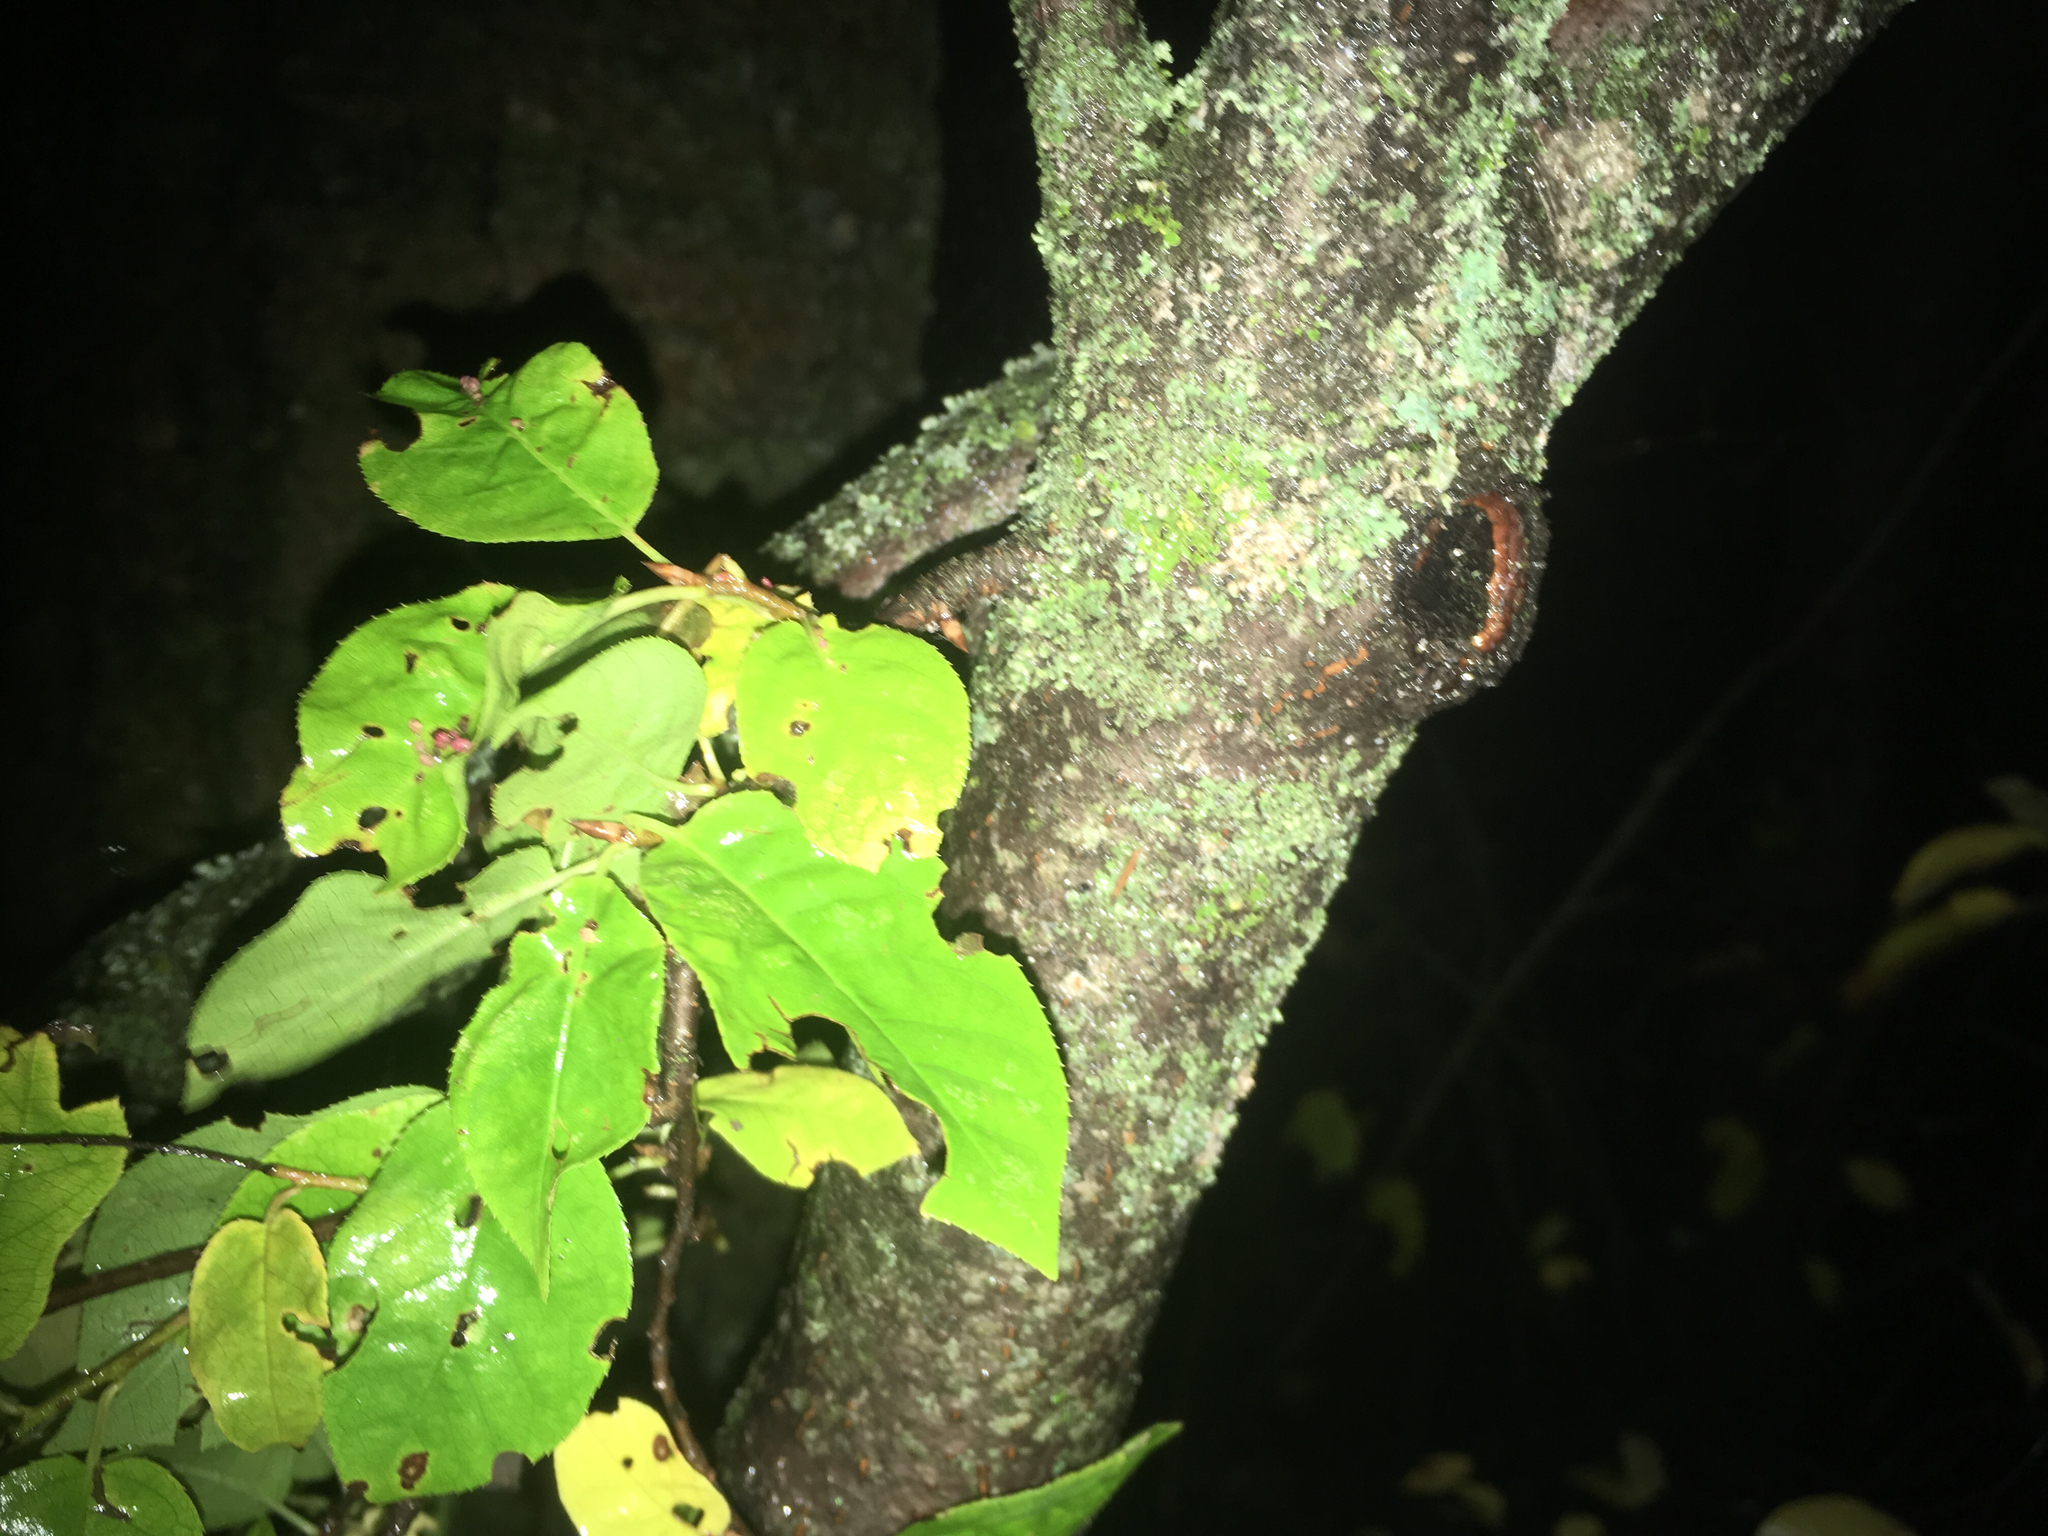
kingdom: Plantae
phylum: Tracheophyta
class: Magnoliopsida
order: Rosales
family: Rosaceae
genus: Prunus
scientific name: Prunus virginiana
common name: Chokecherry
